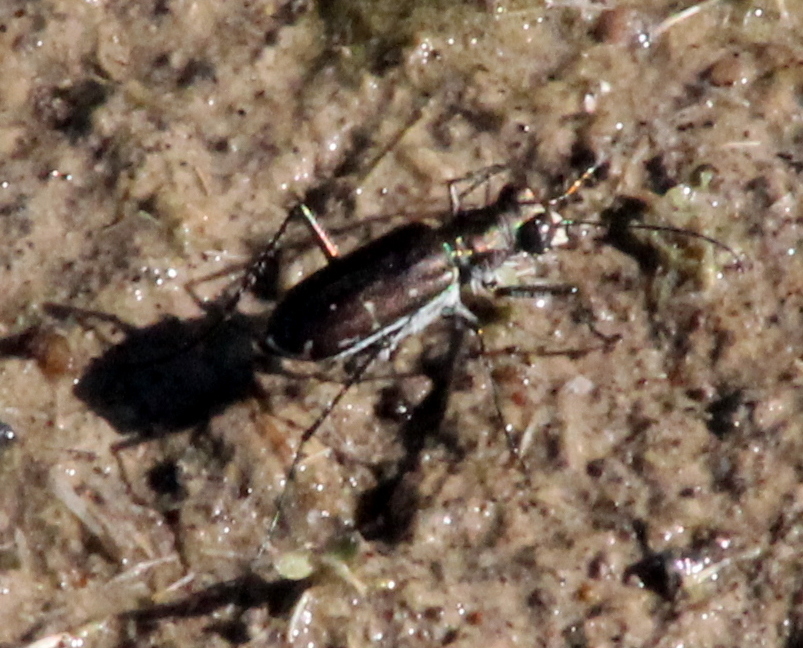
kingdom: Animalia
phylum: Arthropoda
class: Insecta
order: Coleoptera
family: Carabidae
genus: Cicindela
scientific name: Cicindela punctulata
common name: Punctured tiger beetle
